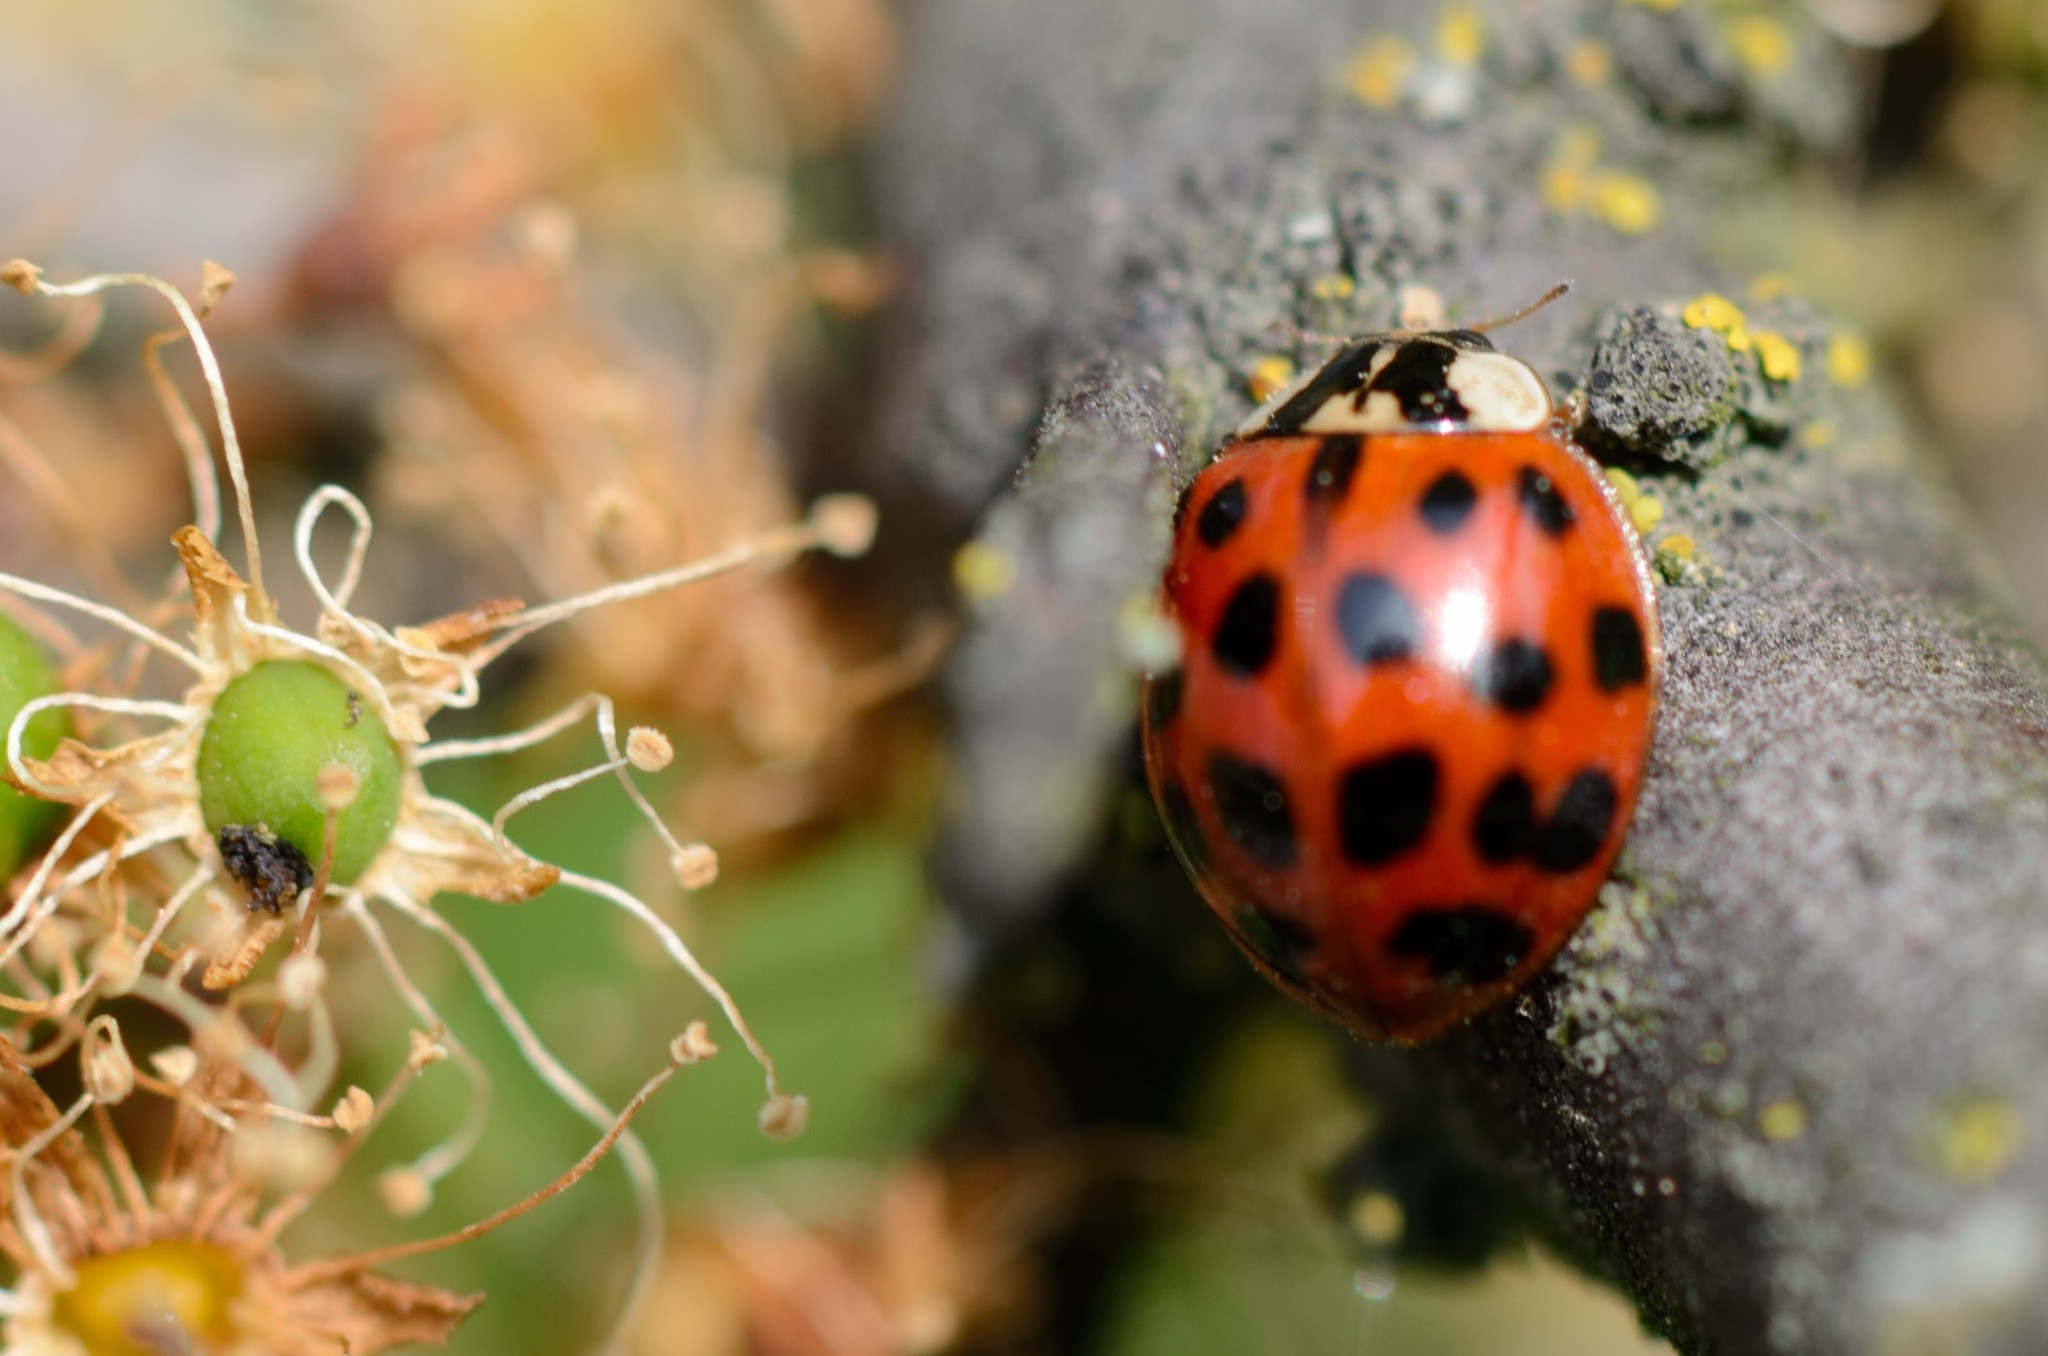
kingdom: Animalia
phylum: Arthropoda
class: Insecta
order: Coleoptera
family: Coccinellidae
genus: Harmonia
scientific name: Harmonia axyridis
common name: Harlequin ladybird
